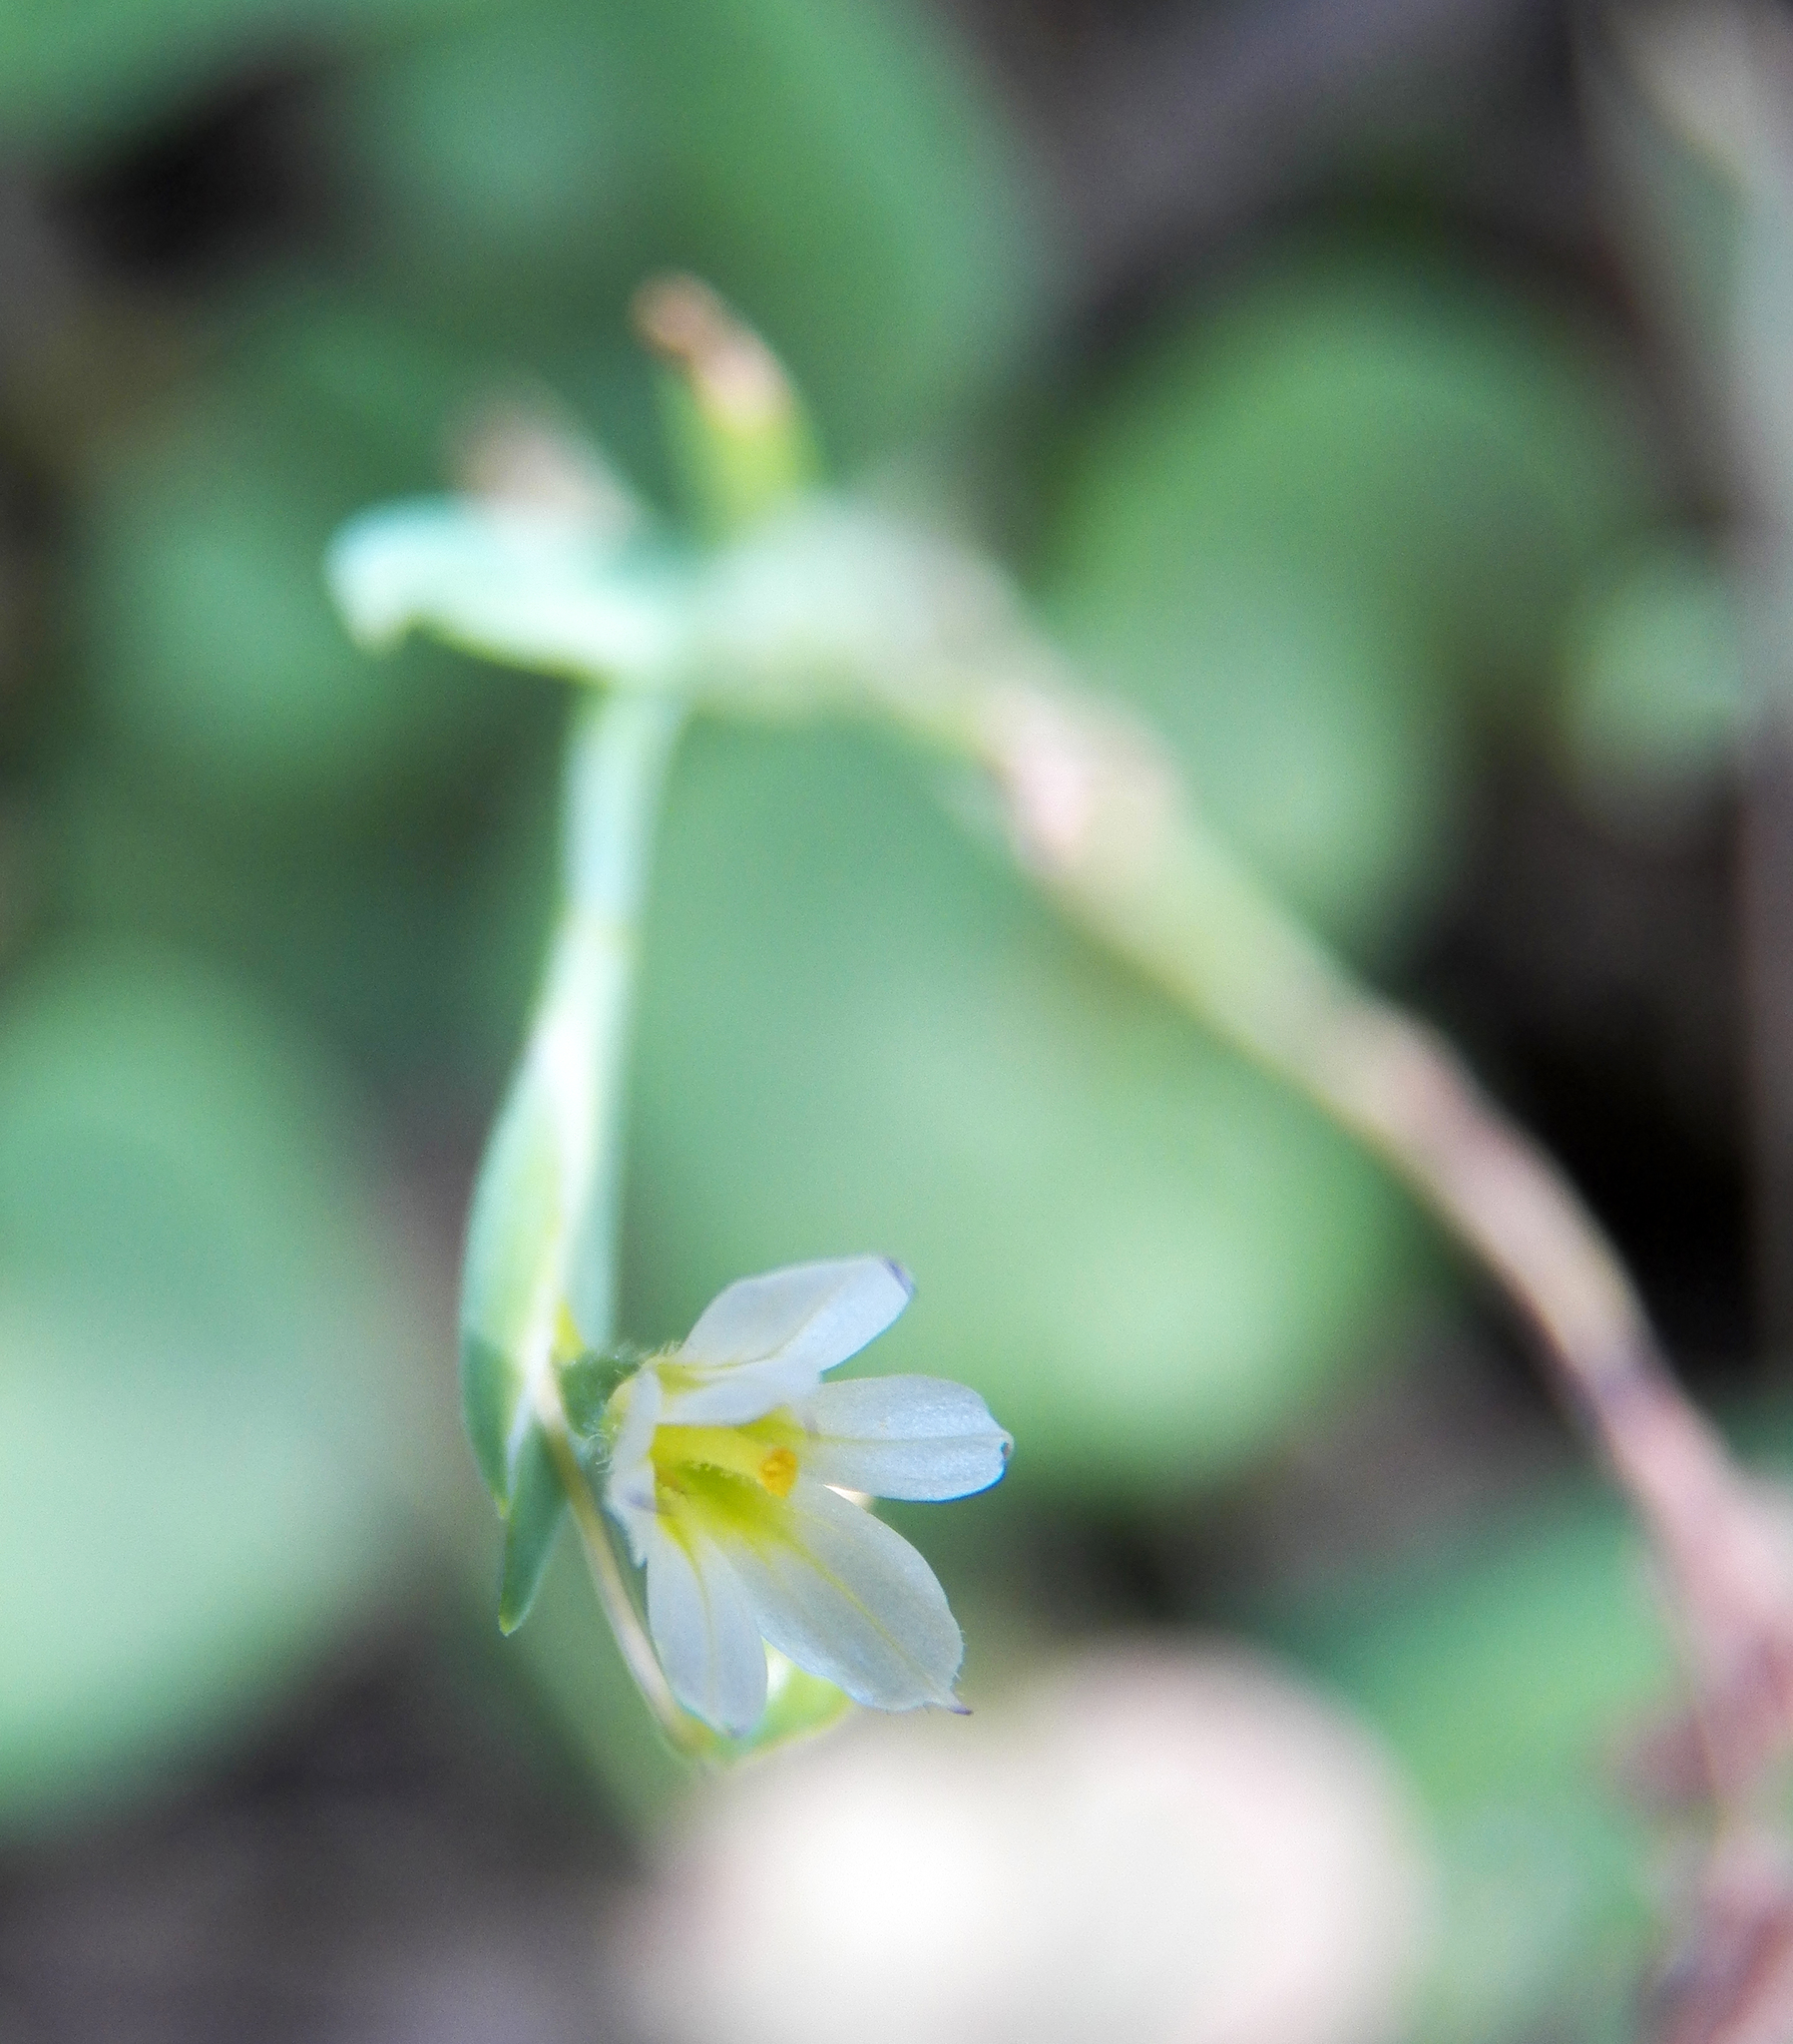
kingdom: Plantae
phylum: Tracheophyta
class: Liliopsida
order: Asparagales
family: Iridaceae
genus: Sisyrinchium
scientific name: Sisyrinchium minus
